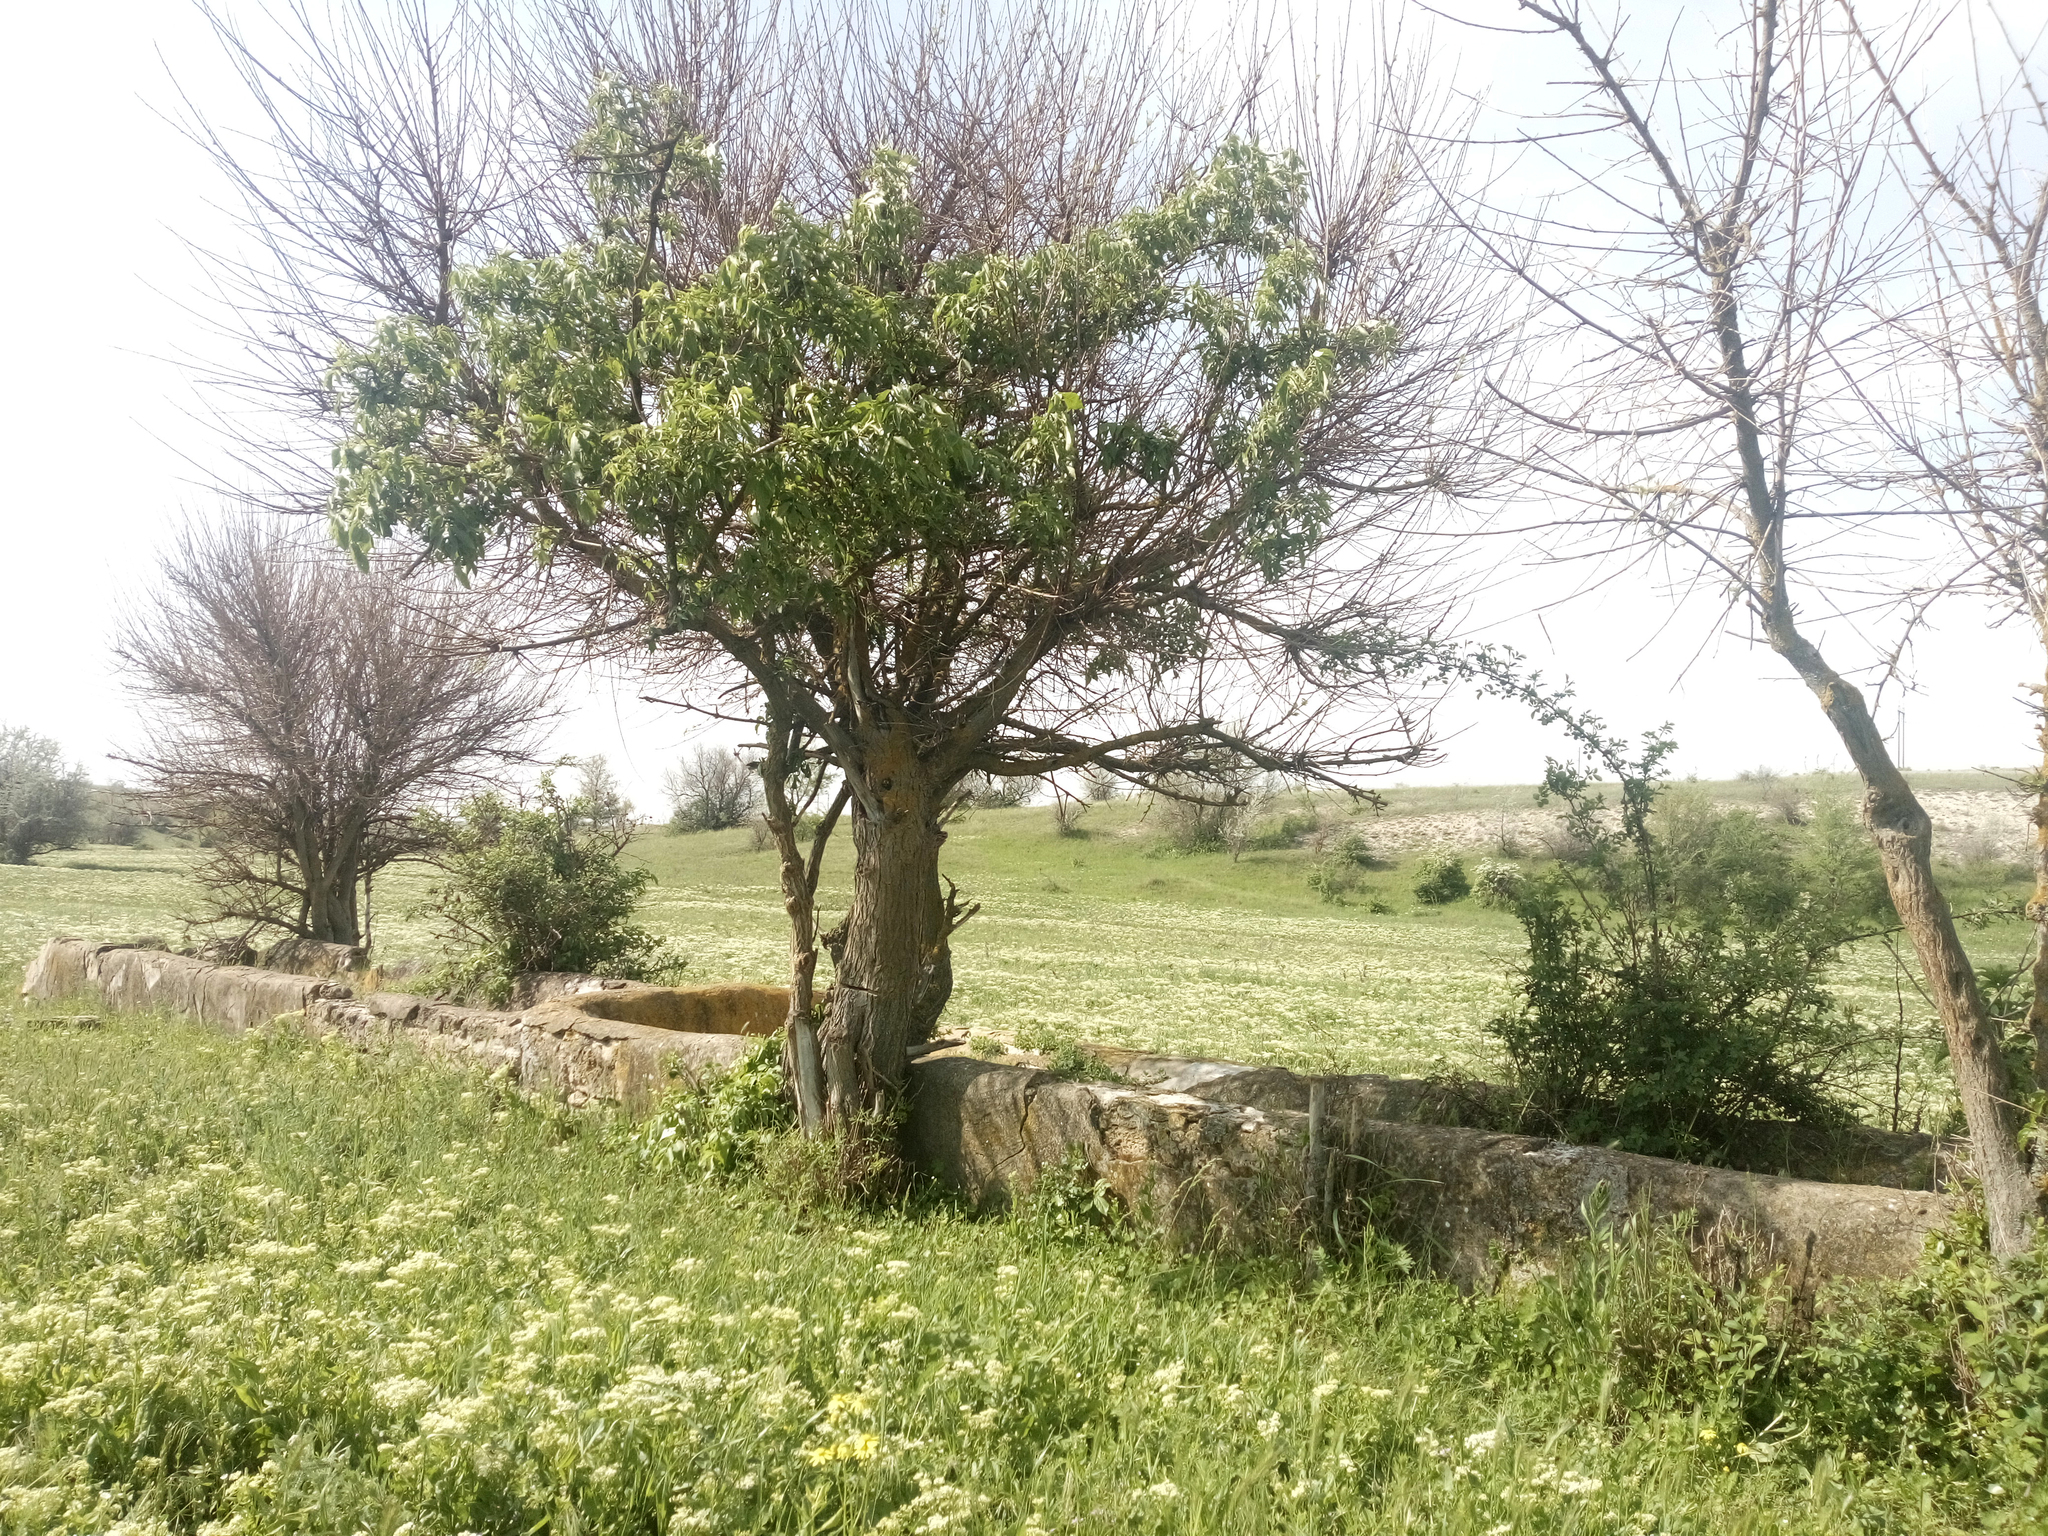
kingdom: Plantae
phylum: Tracheophyta
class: Magnoliopsida
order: Dipsacales
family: Viburnaceae
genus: Sambucus
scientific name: Sambucus nigra
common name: Elder
